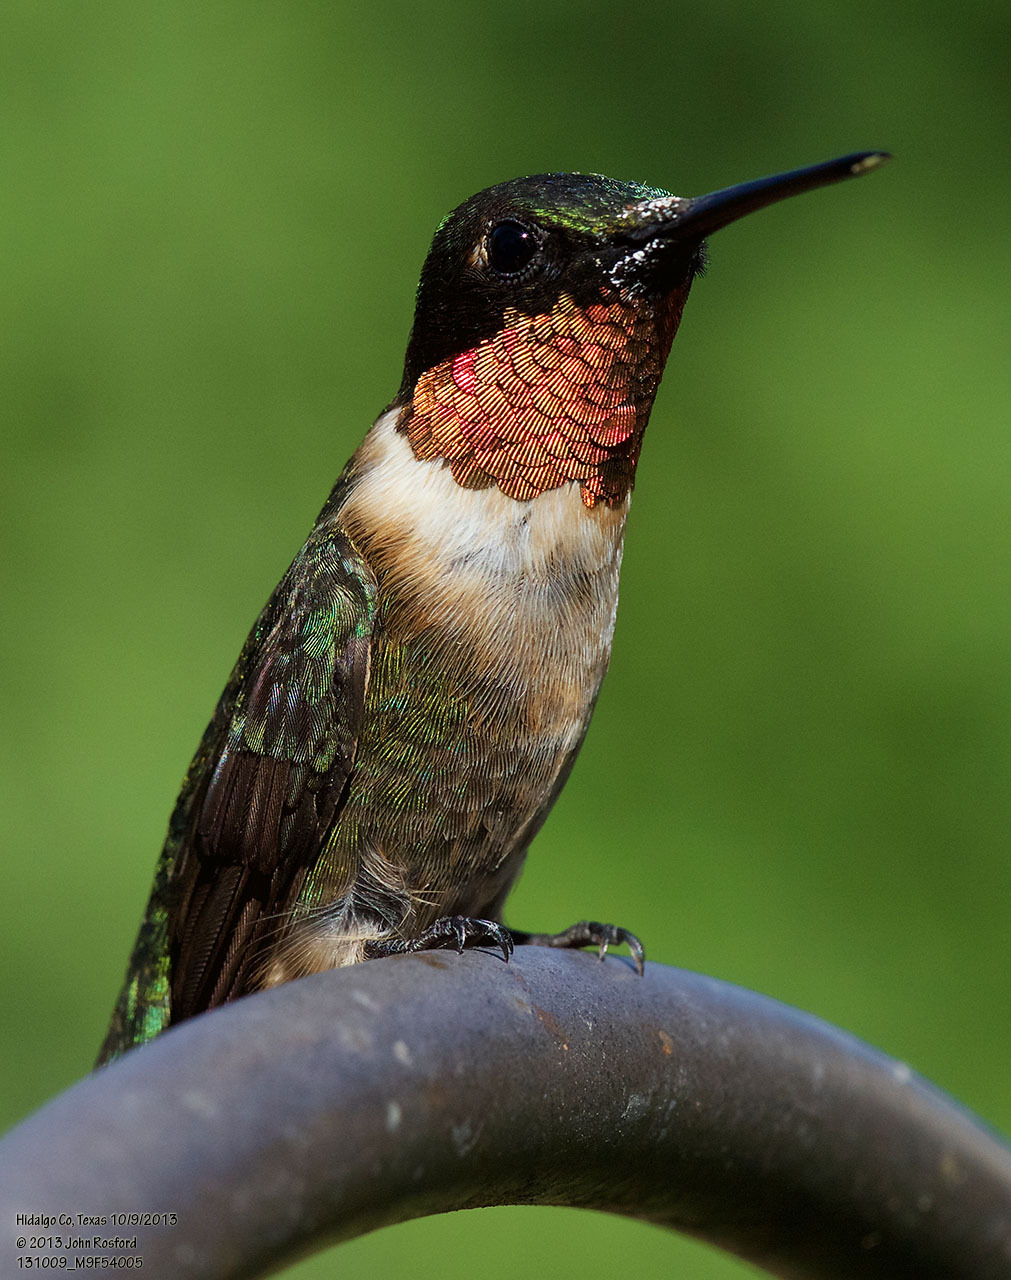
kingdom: Animalia
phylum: Chordata
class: Aves
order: Apodiformes
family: Trochilidae
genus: Archilochus
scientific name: Archilochus colubris
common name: Ruby-throated hummingbird
